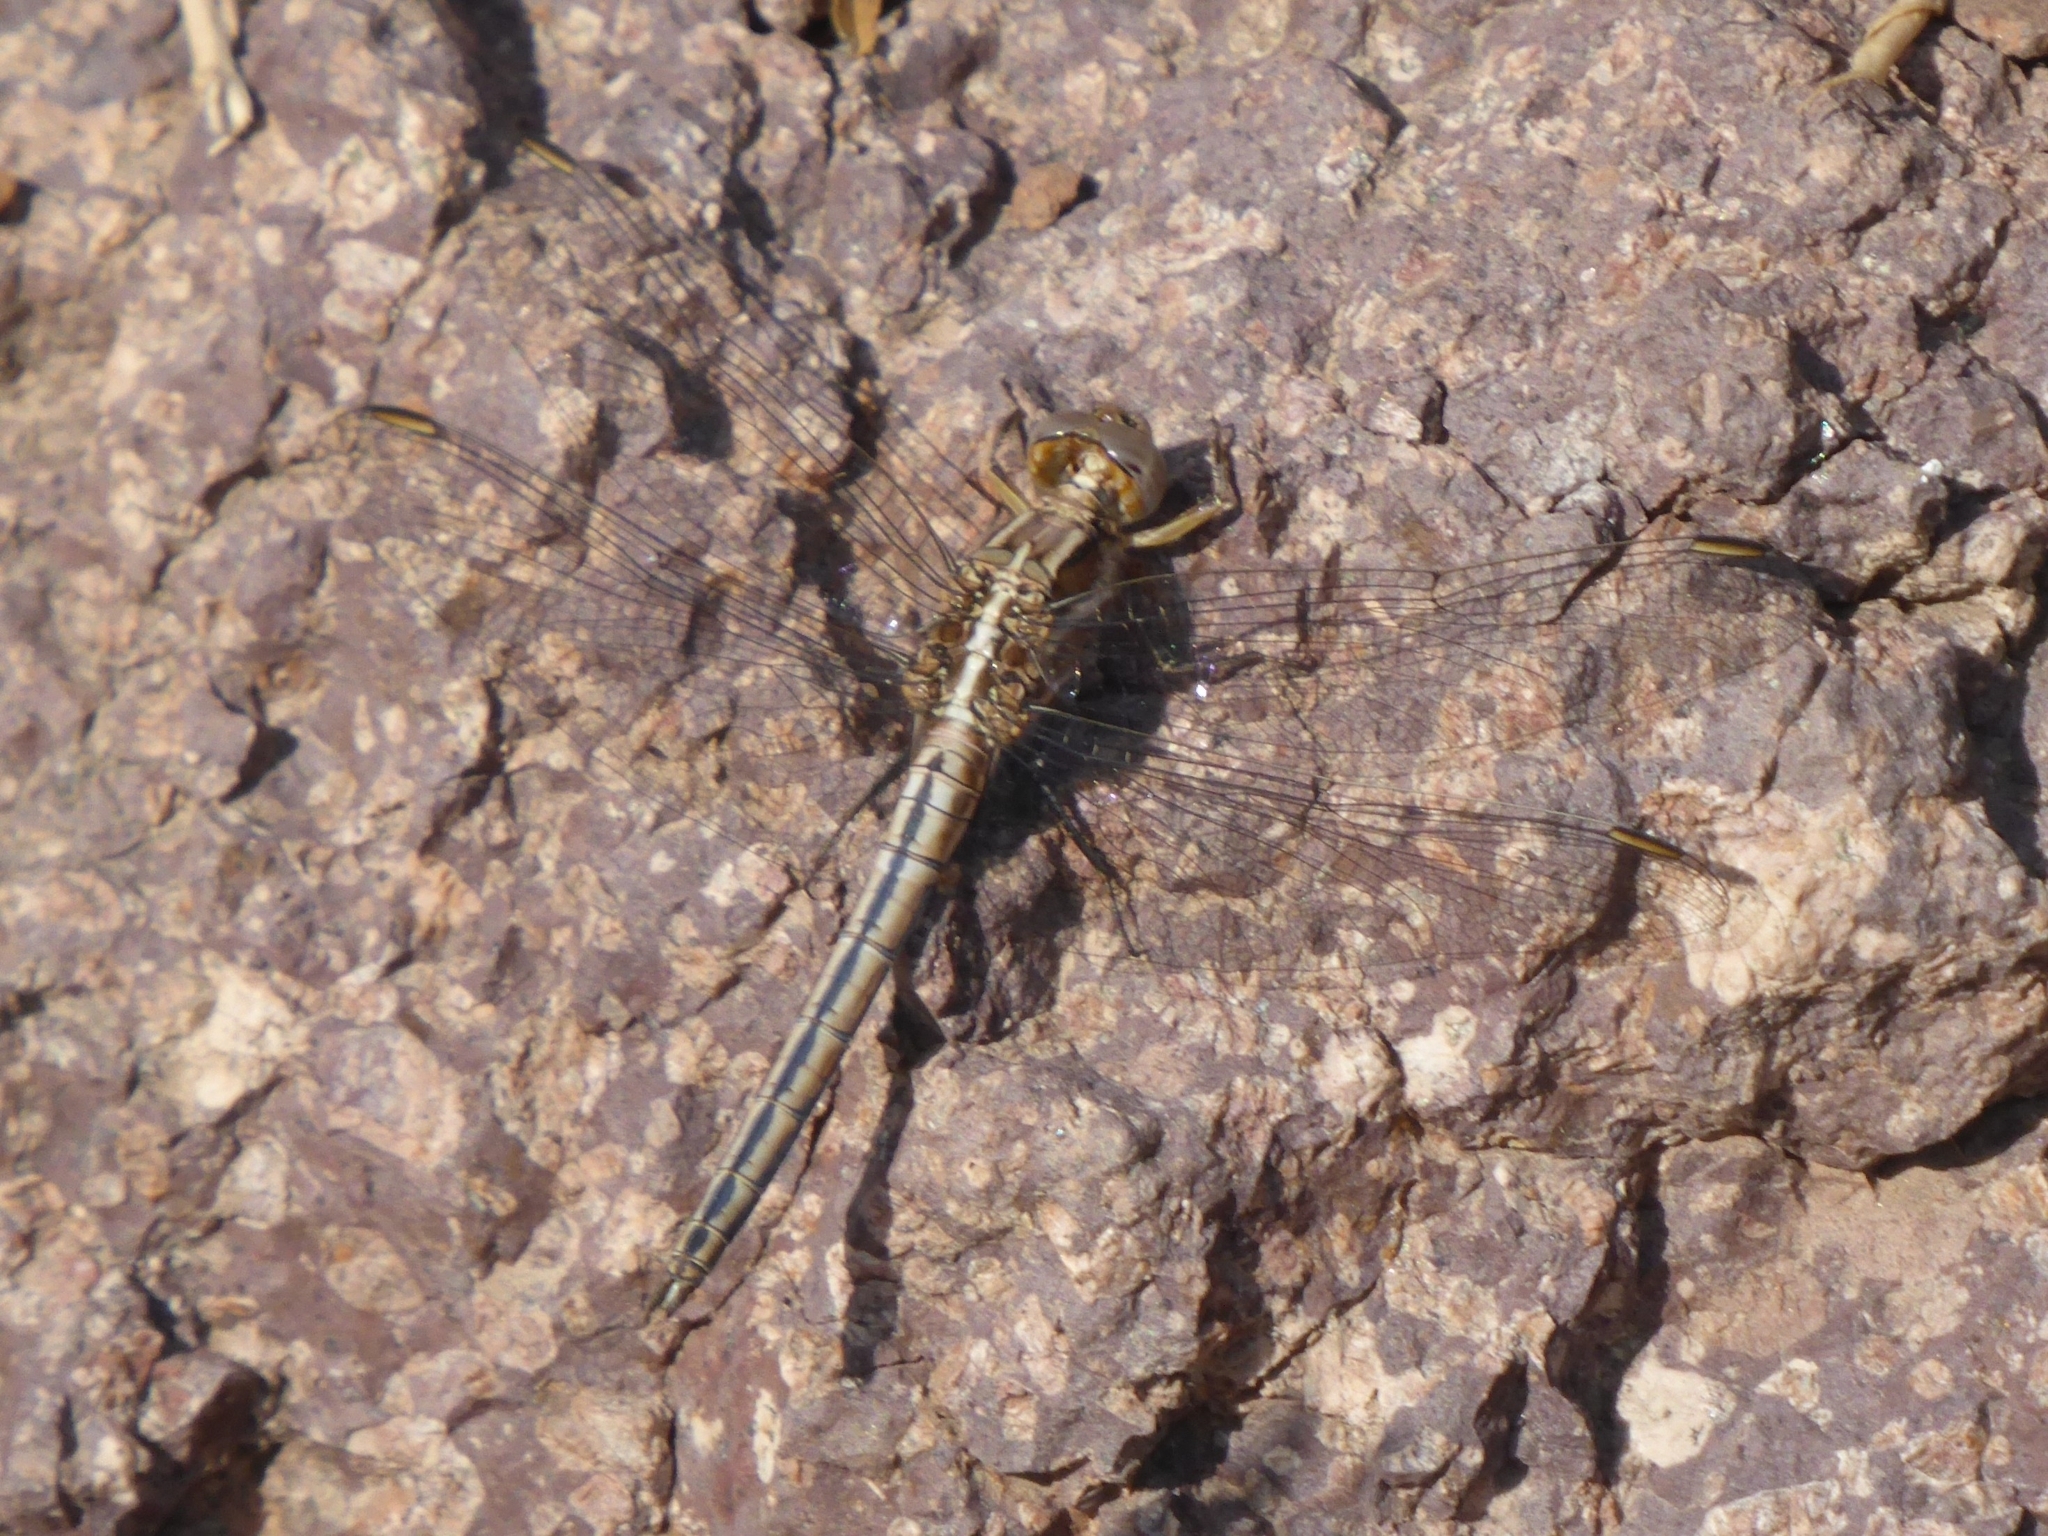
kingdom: Animalia
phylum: Arthropoda
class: Insecta
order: Odonata
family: Libellulidae
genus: Orthetrum
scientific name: Orthetrum taeniolatum
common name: Small skimmer
